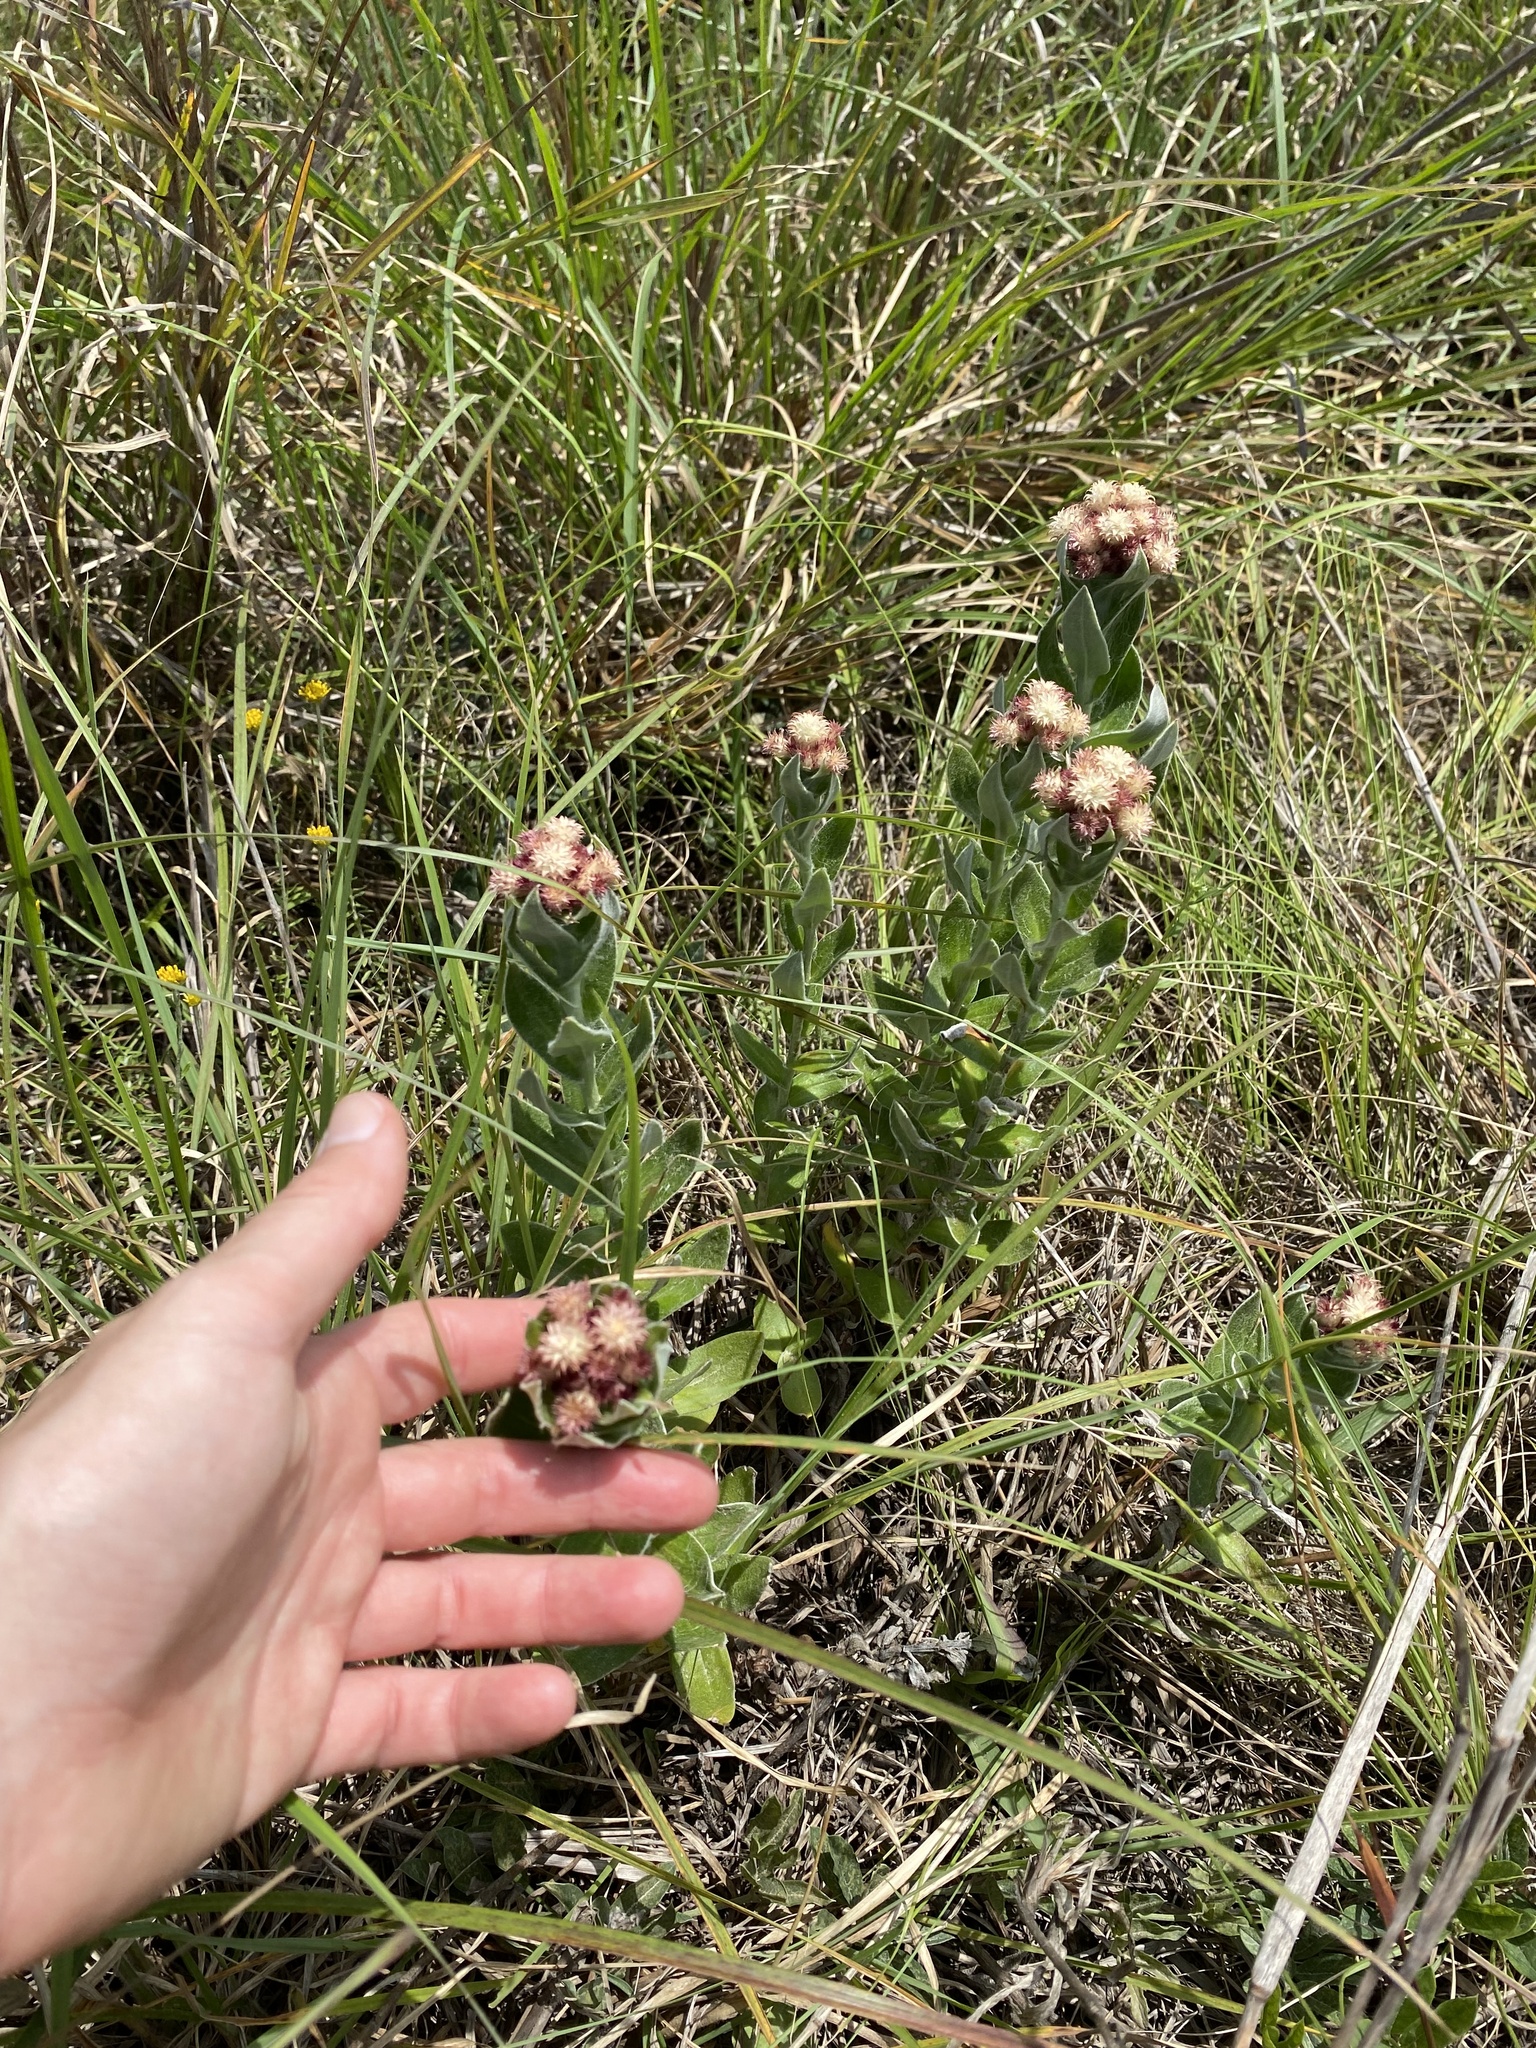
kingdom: Plantae
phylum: Tracheophyta
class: Magnoliopsida
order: Asterales
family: Asteraceae
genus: Helichrysum
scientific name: Helichrysum appendiculatum
